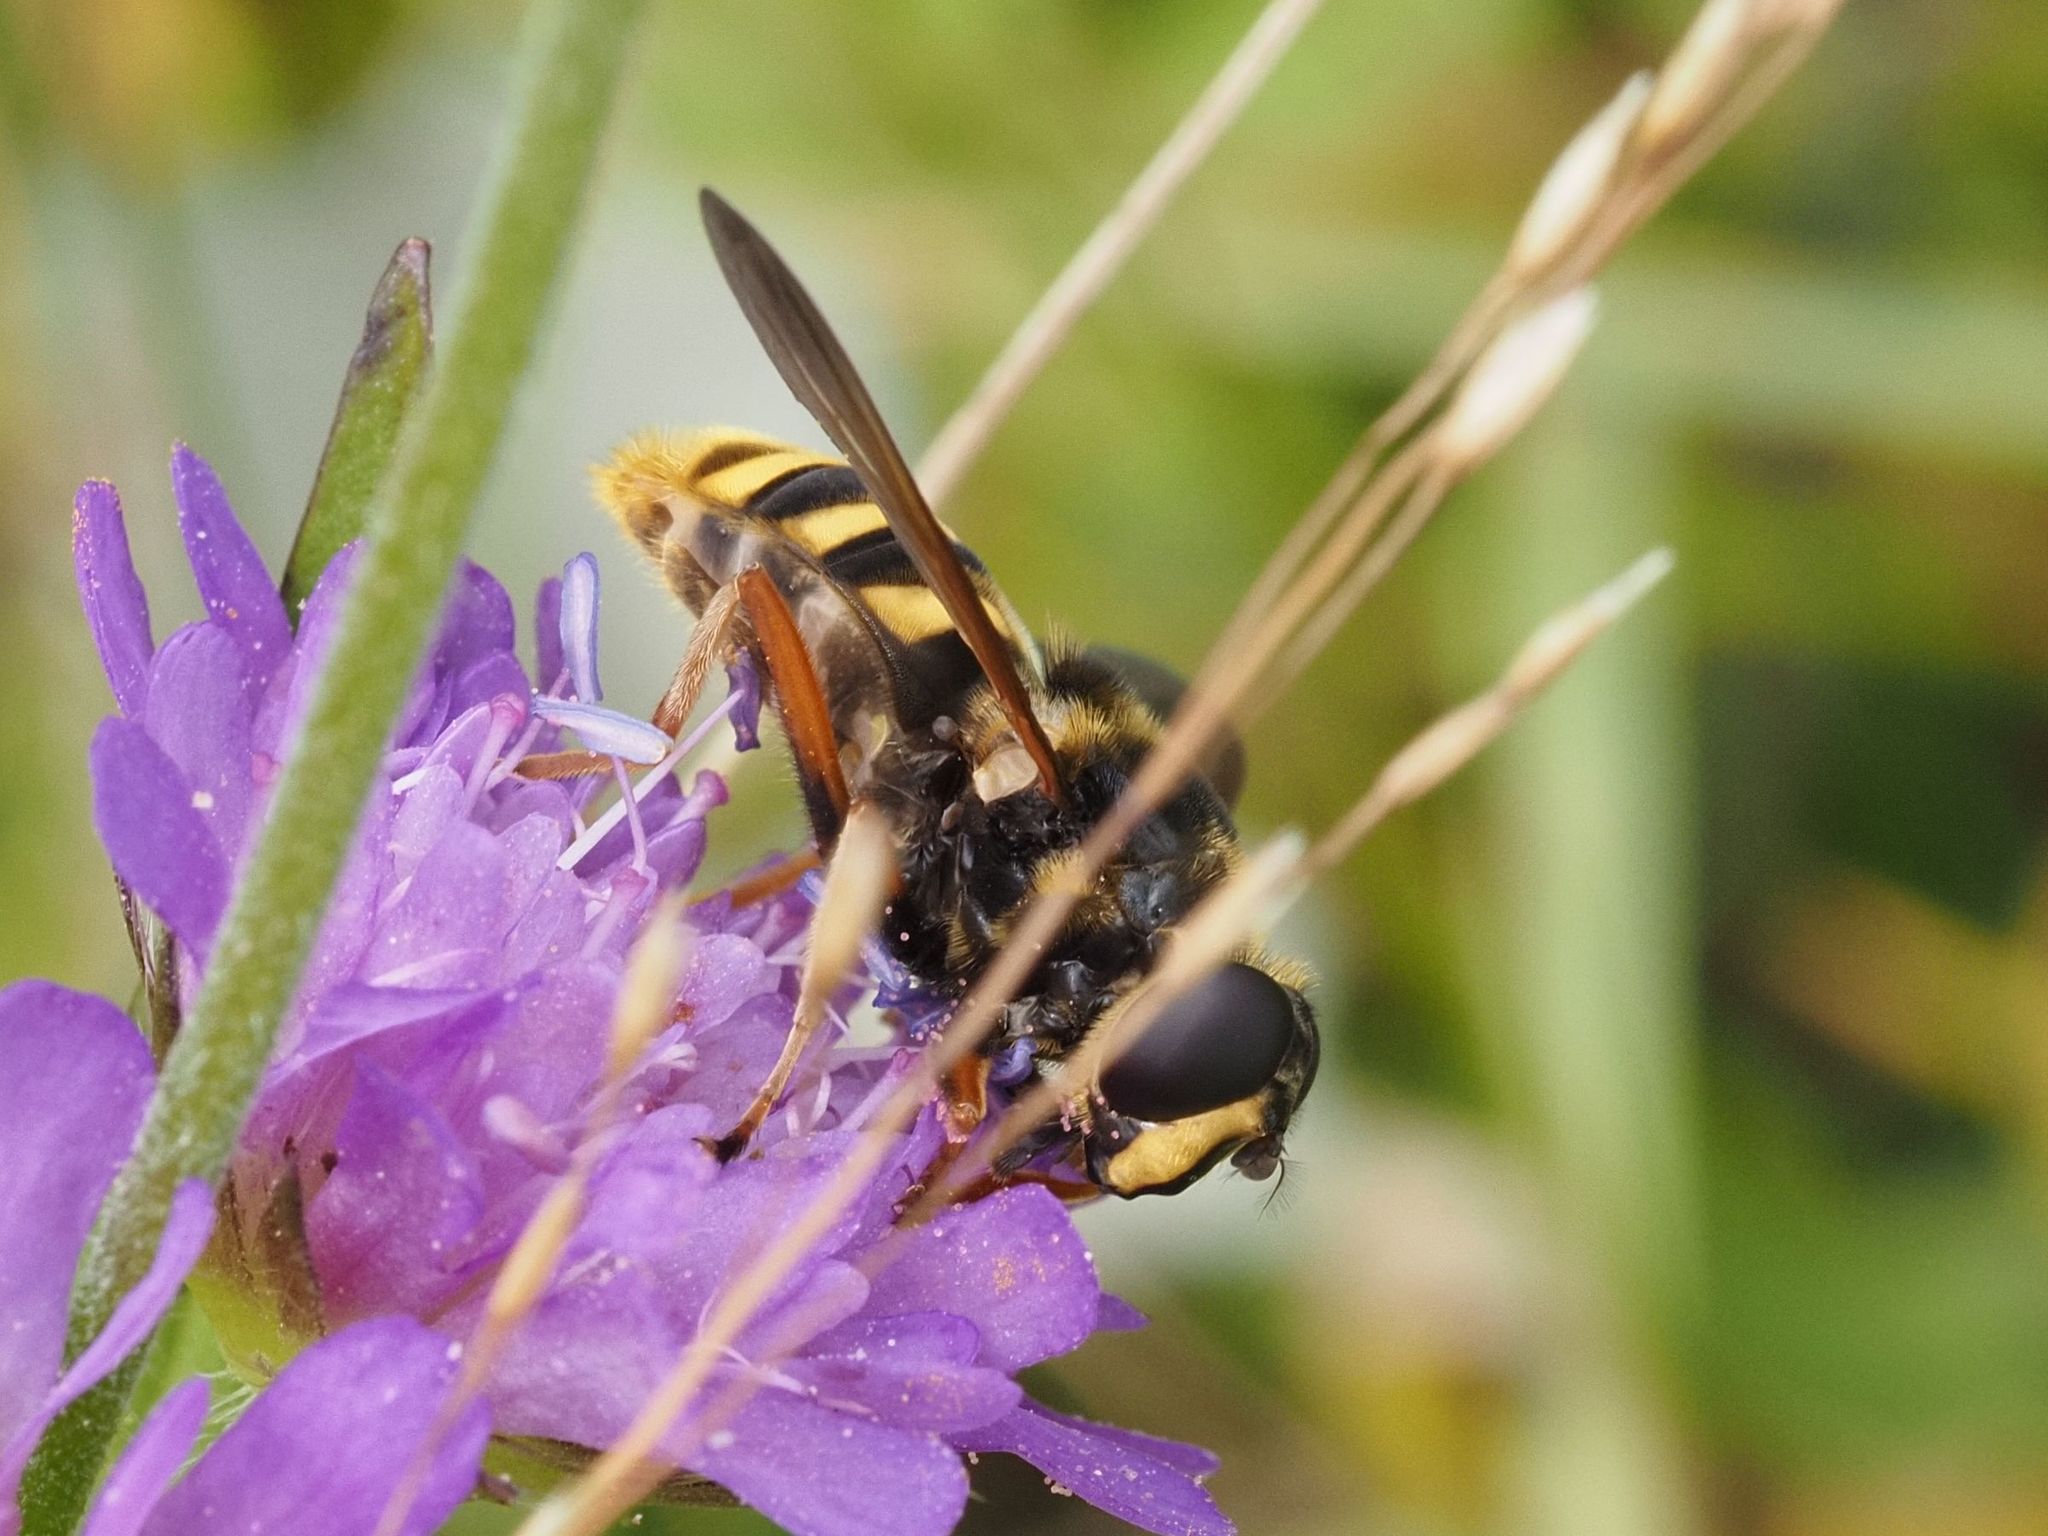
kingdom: Animalia
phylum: Arthropoda
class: Insecta
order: Diptera
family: Syrphidae
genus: Sericomyia
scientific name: Sericomyia silentis
